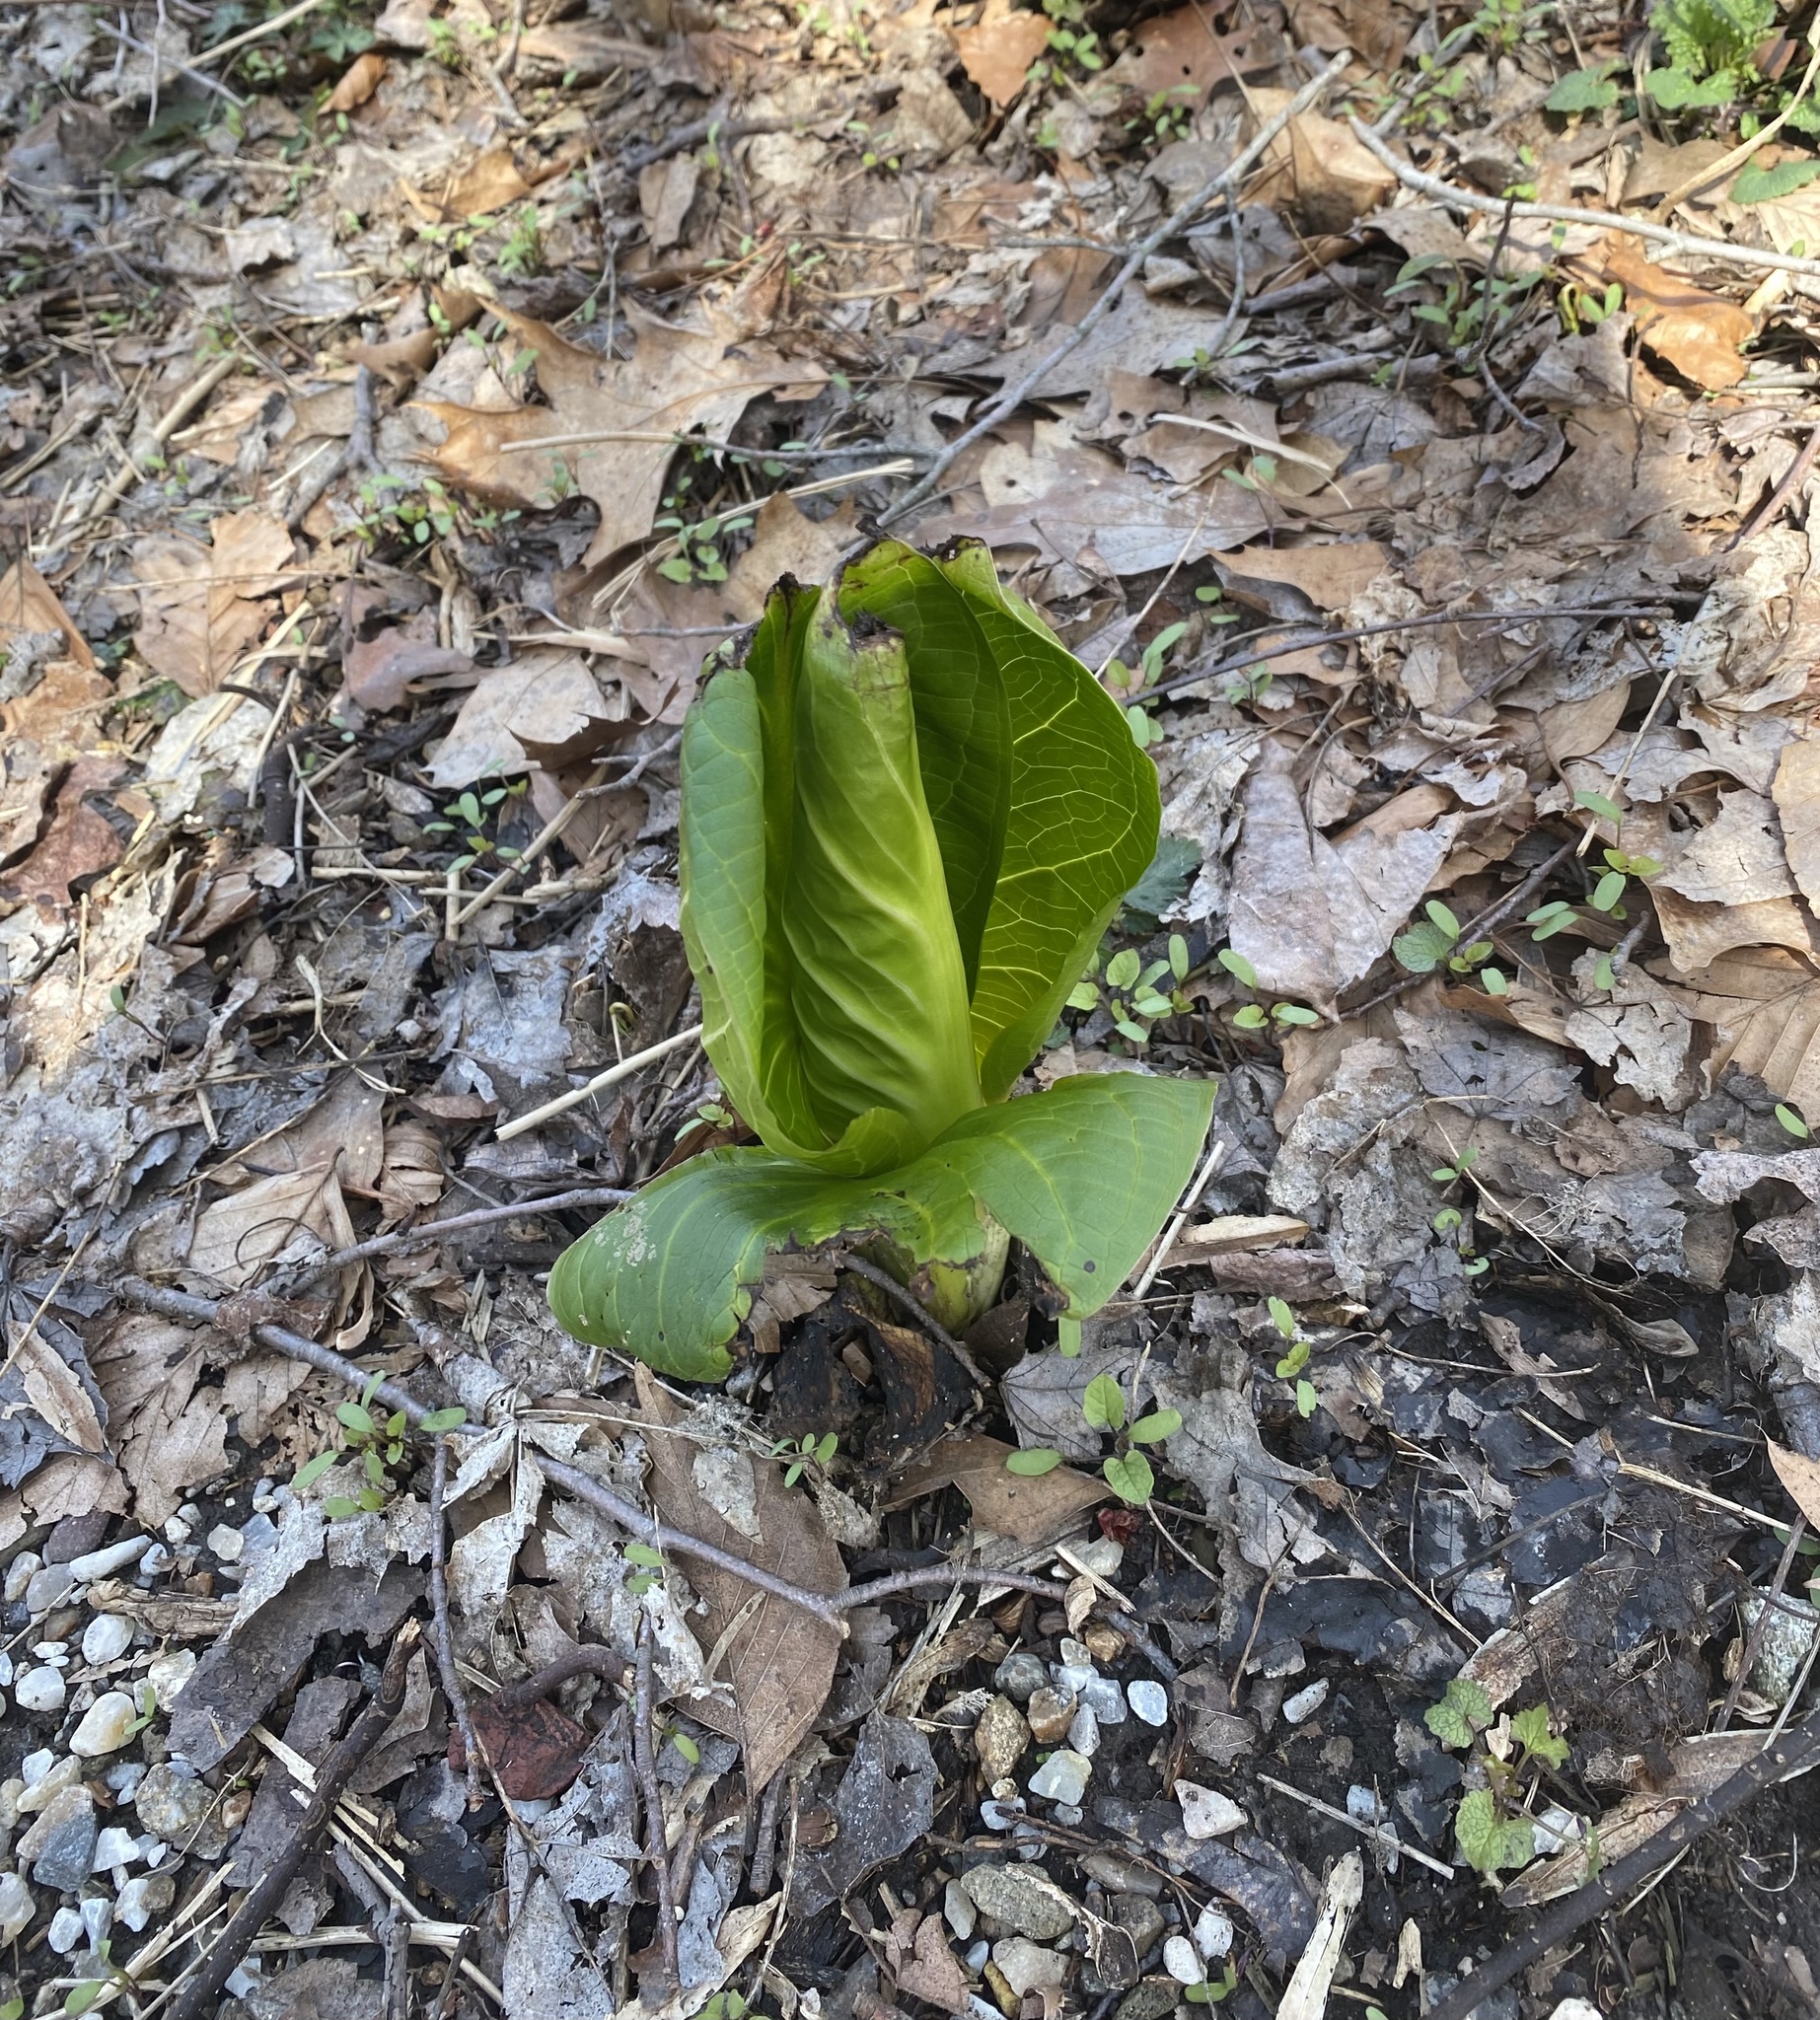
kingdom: Plantae
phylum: Tracheophyta
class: Liliopsida
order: Alismatales
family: Araceae
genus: Symplocarpus
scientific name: Symplocarpus foetidus
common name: Eastern skunk cabbage
